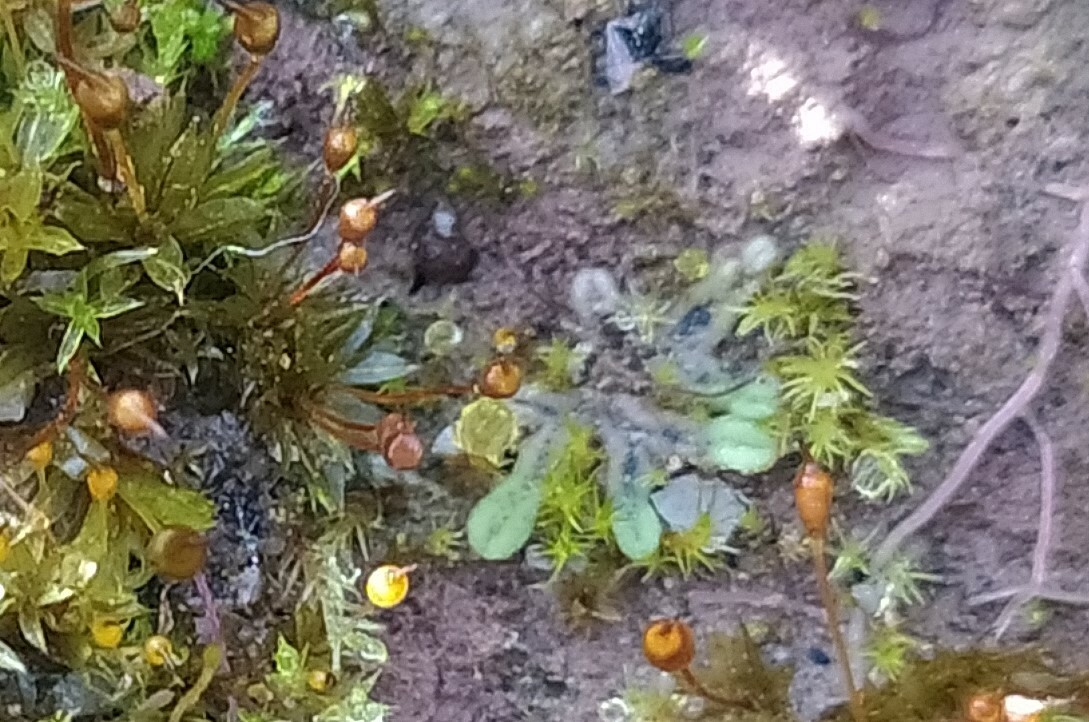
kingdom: Plantae
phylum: Marchantiophyta
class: Marchantiopsida
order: Marchantiales
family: Ricciaceae
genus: Riccia
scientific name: Riccia sorocarpa
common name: Common crystalwort
